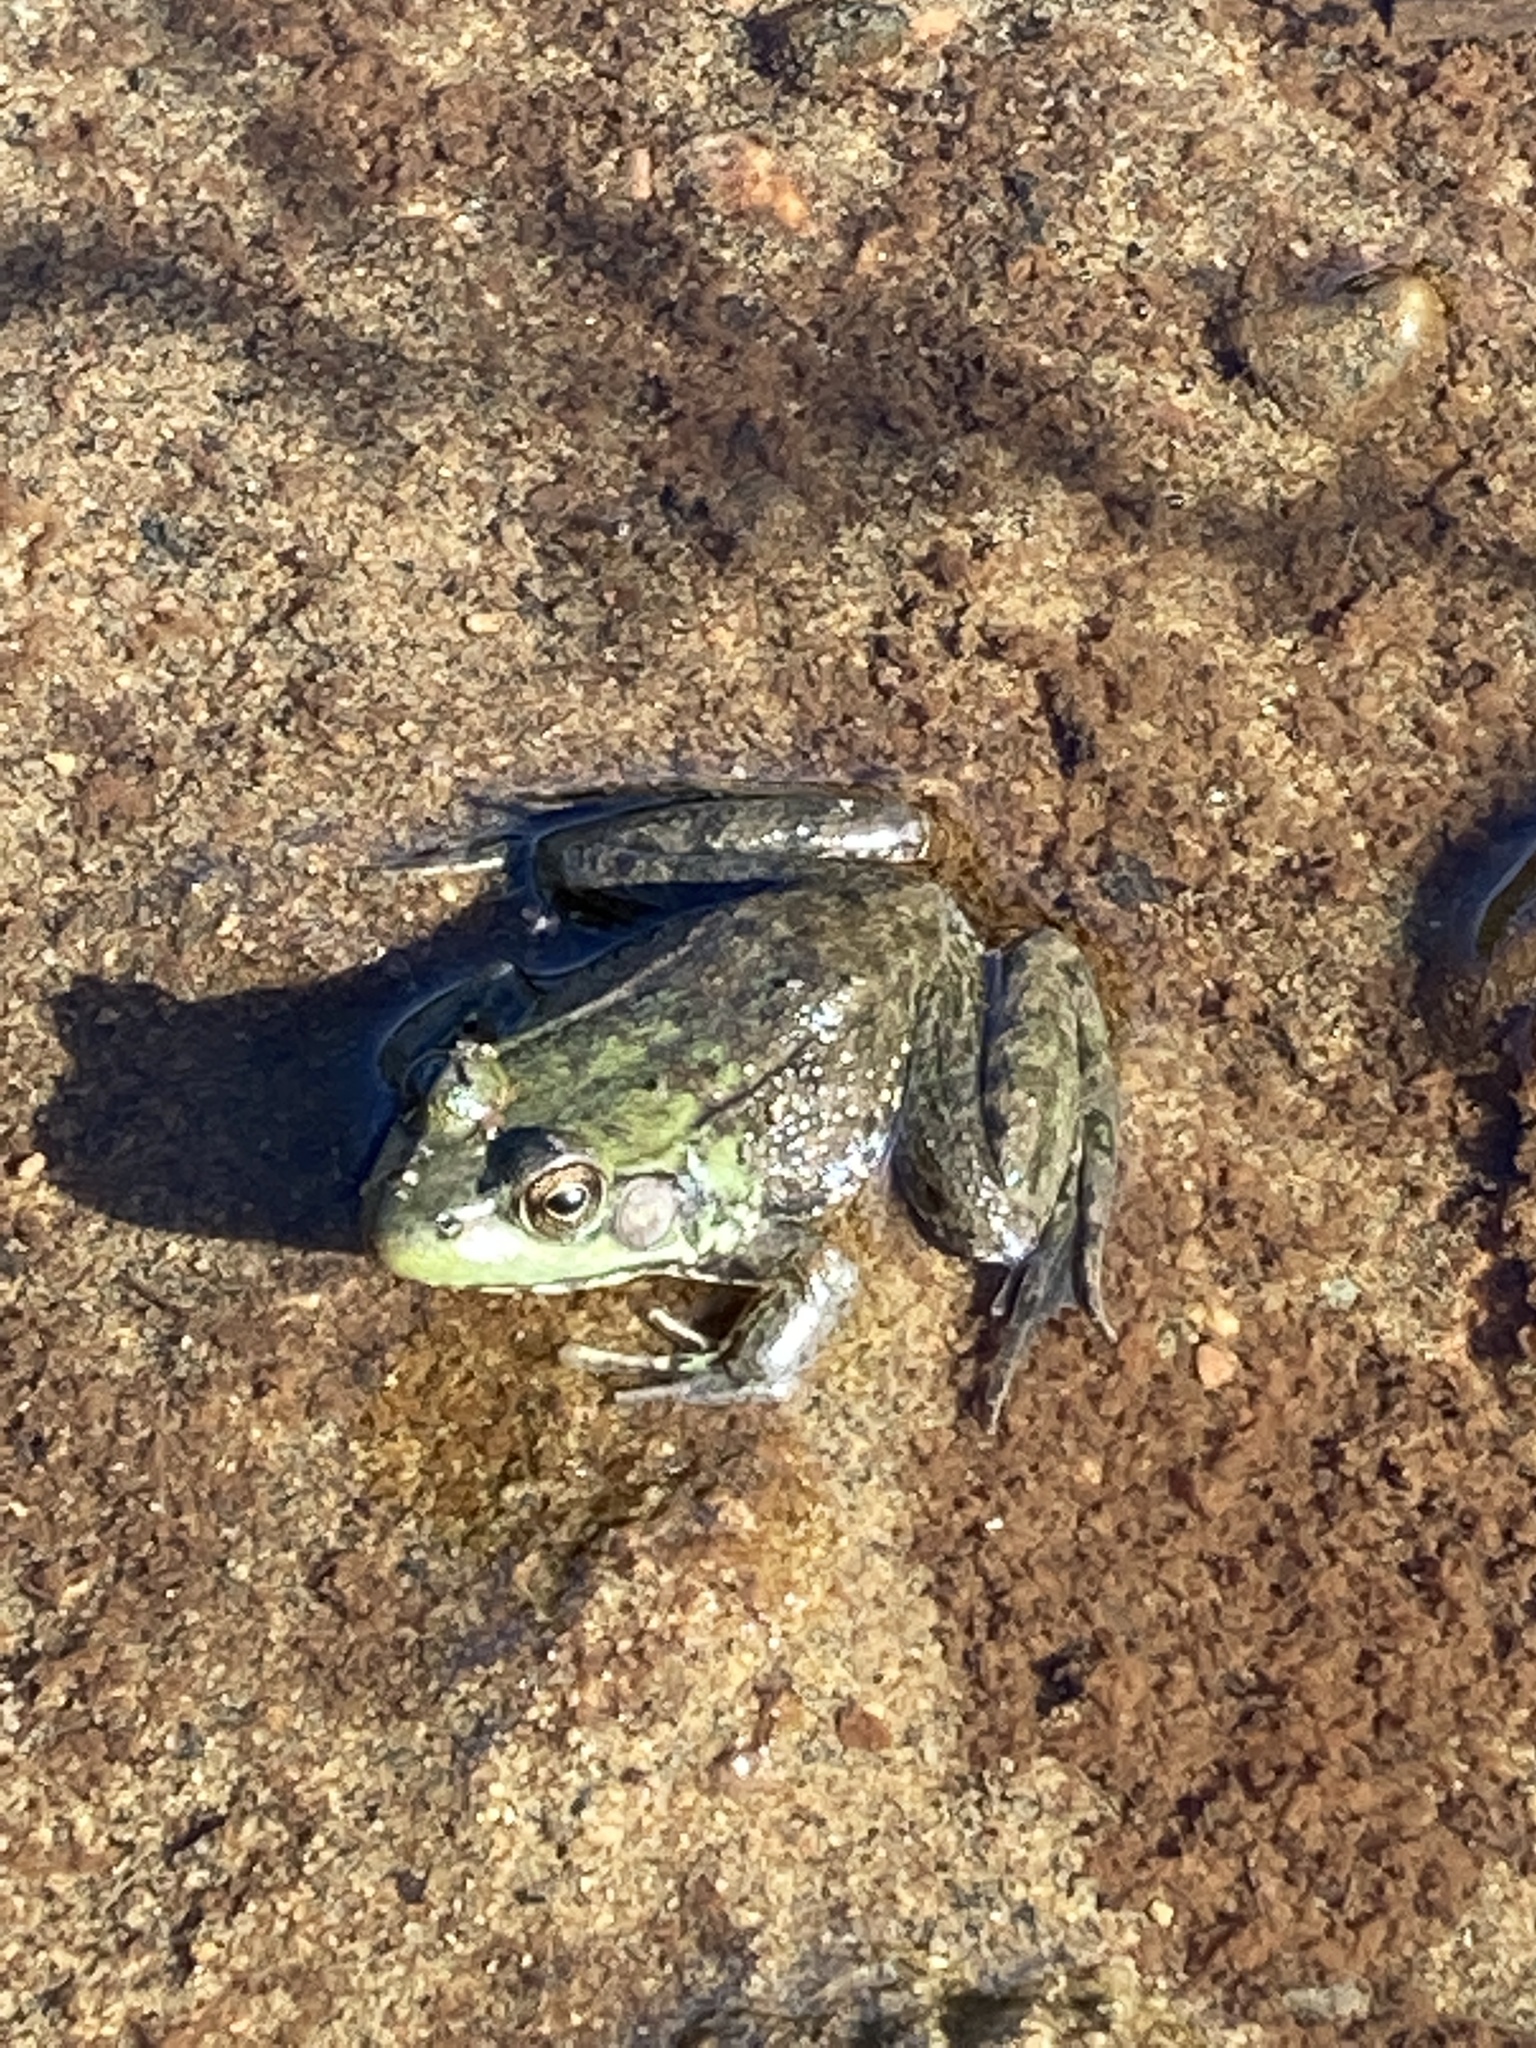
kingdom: Animalia
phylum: Chordata
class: Amphibia
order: Anura
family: Ranidae
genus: Lithobates
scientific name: Lithobates clamitans
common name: Green frog
